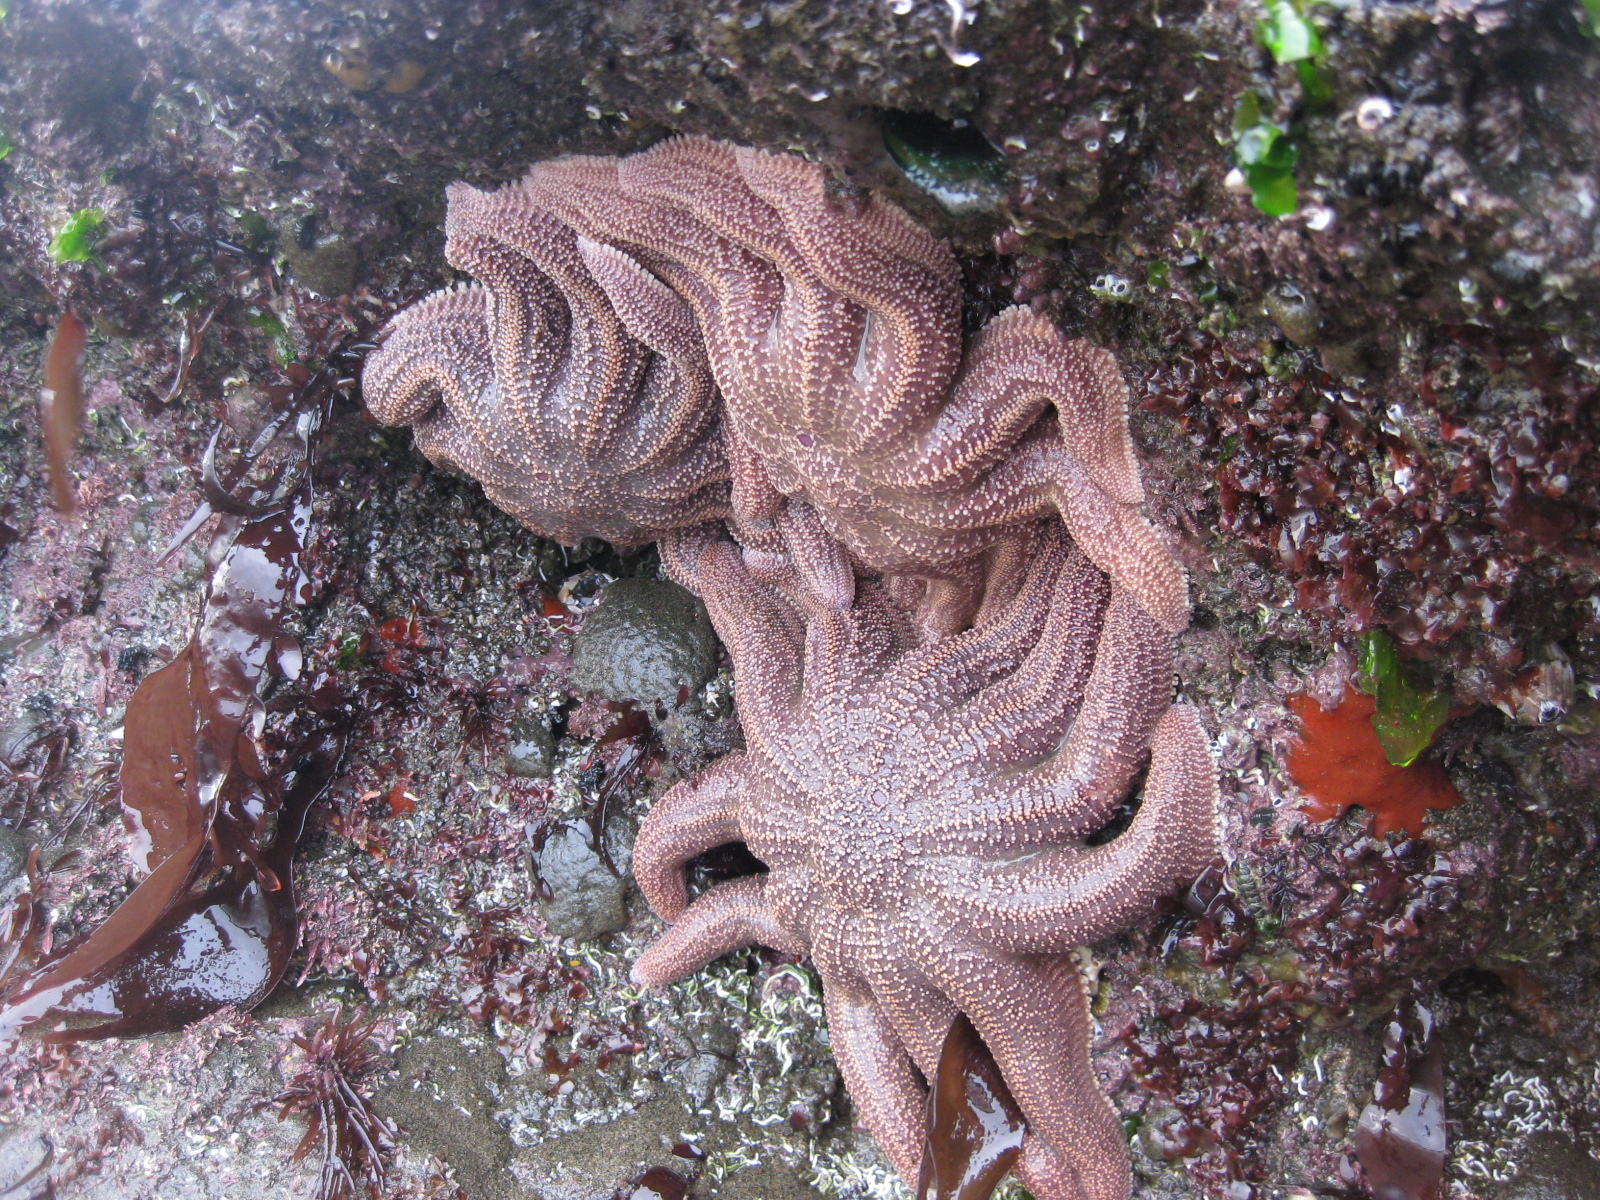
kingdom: Animalia
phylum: Echinodermata
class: Asteroidea
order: Forcipulatida
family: Stichasteridae
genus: Stichaster
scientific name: Stichaster australis
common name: Reef starfish
